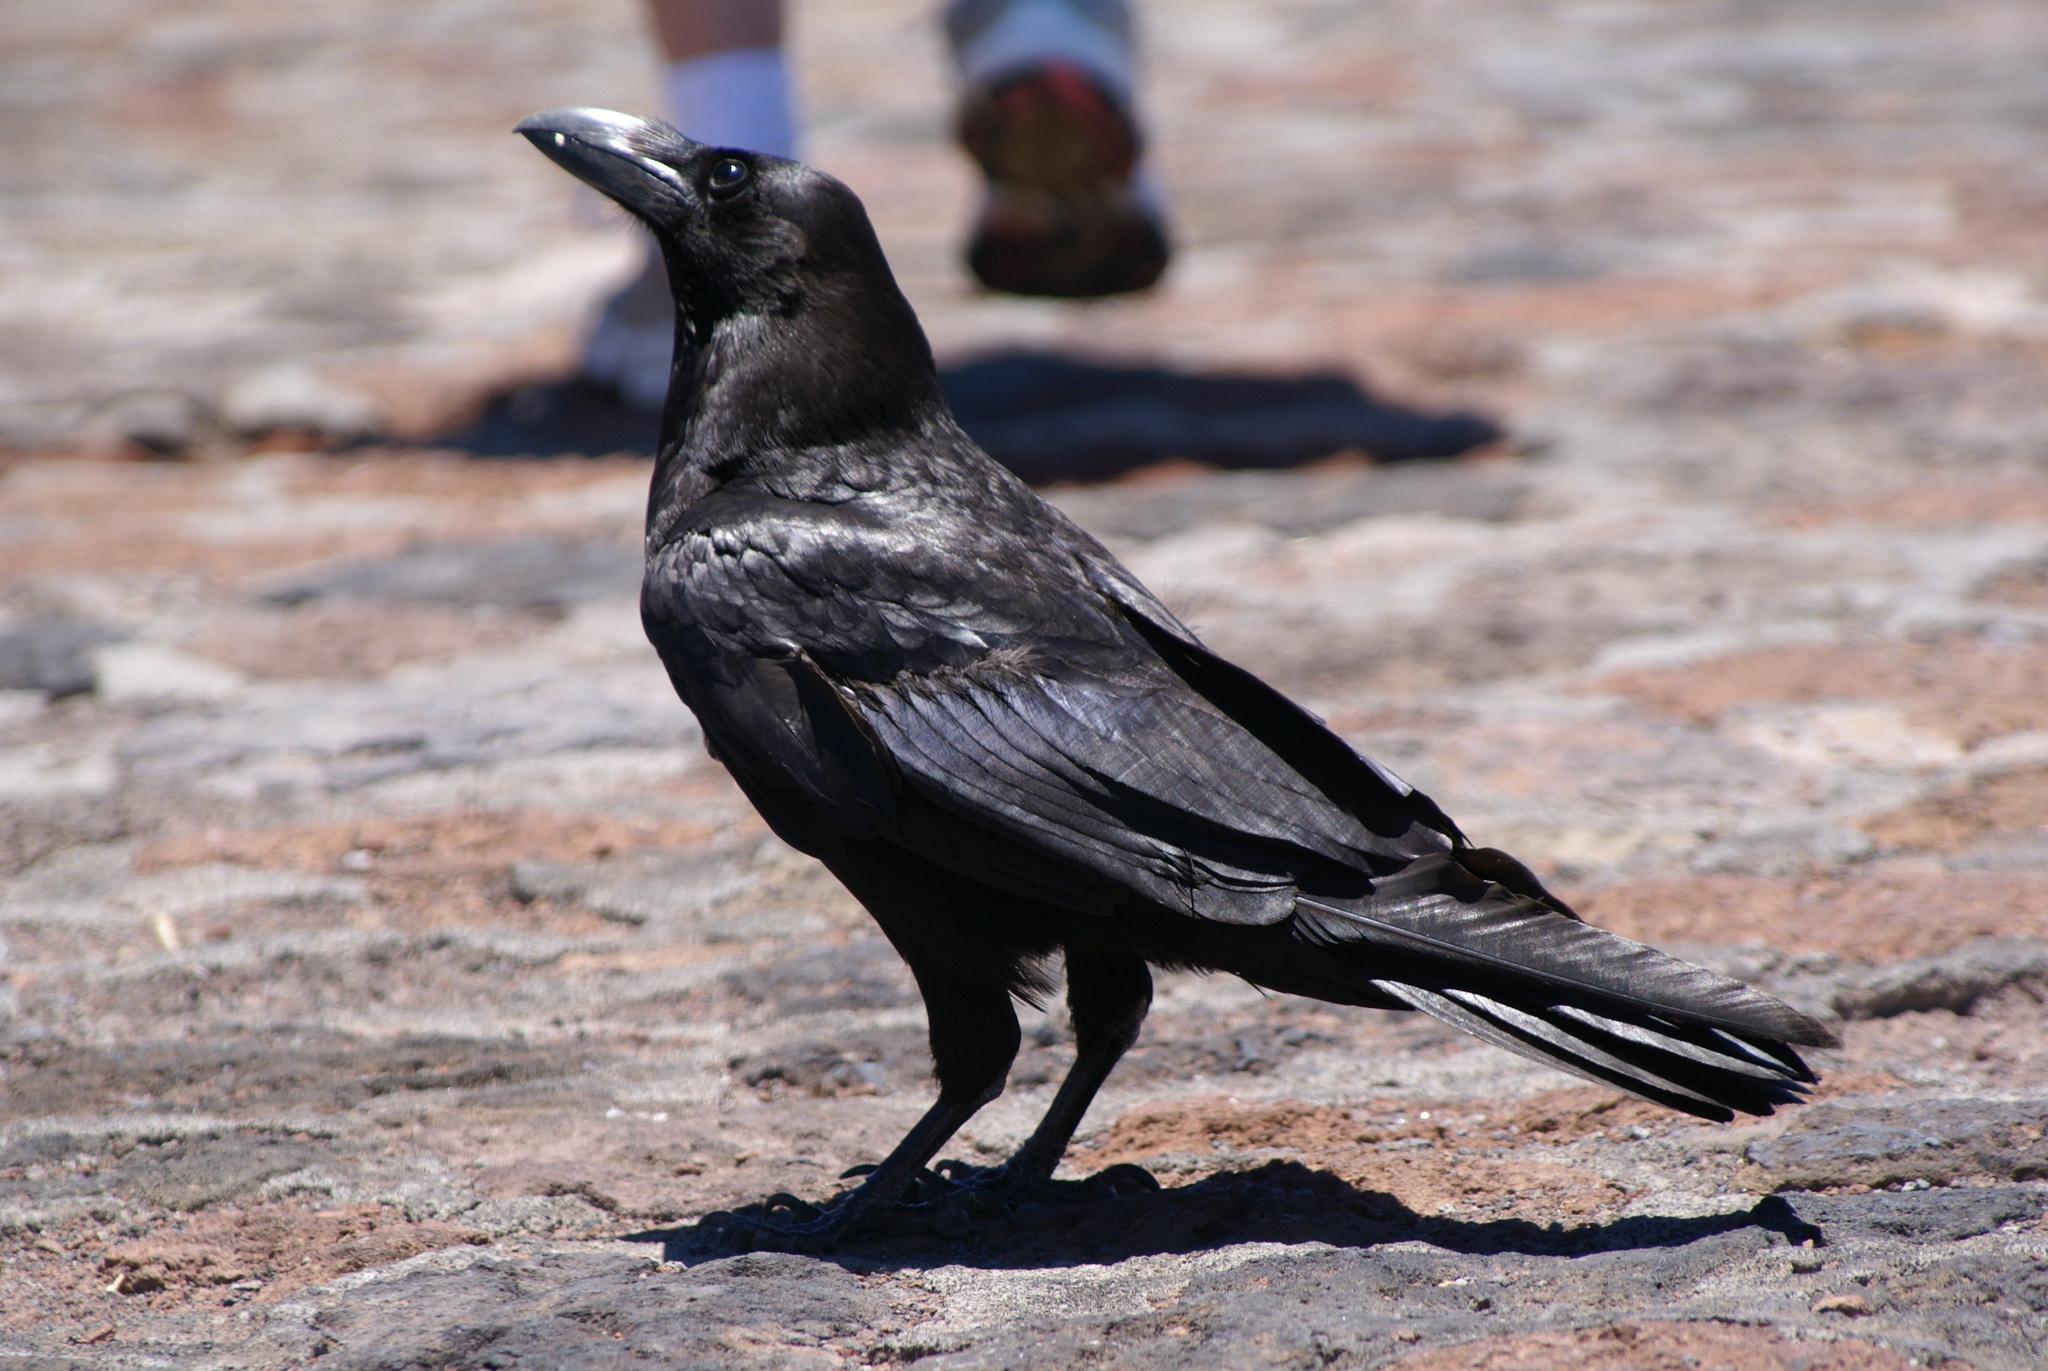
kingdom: Animalia
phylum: Chordata
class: Aves
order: Passeriformes
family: Corvidae
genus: Corvus
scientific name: Corvus corax
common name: Common raven
